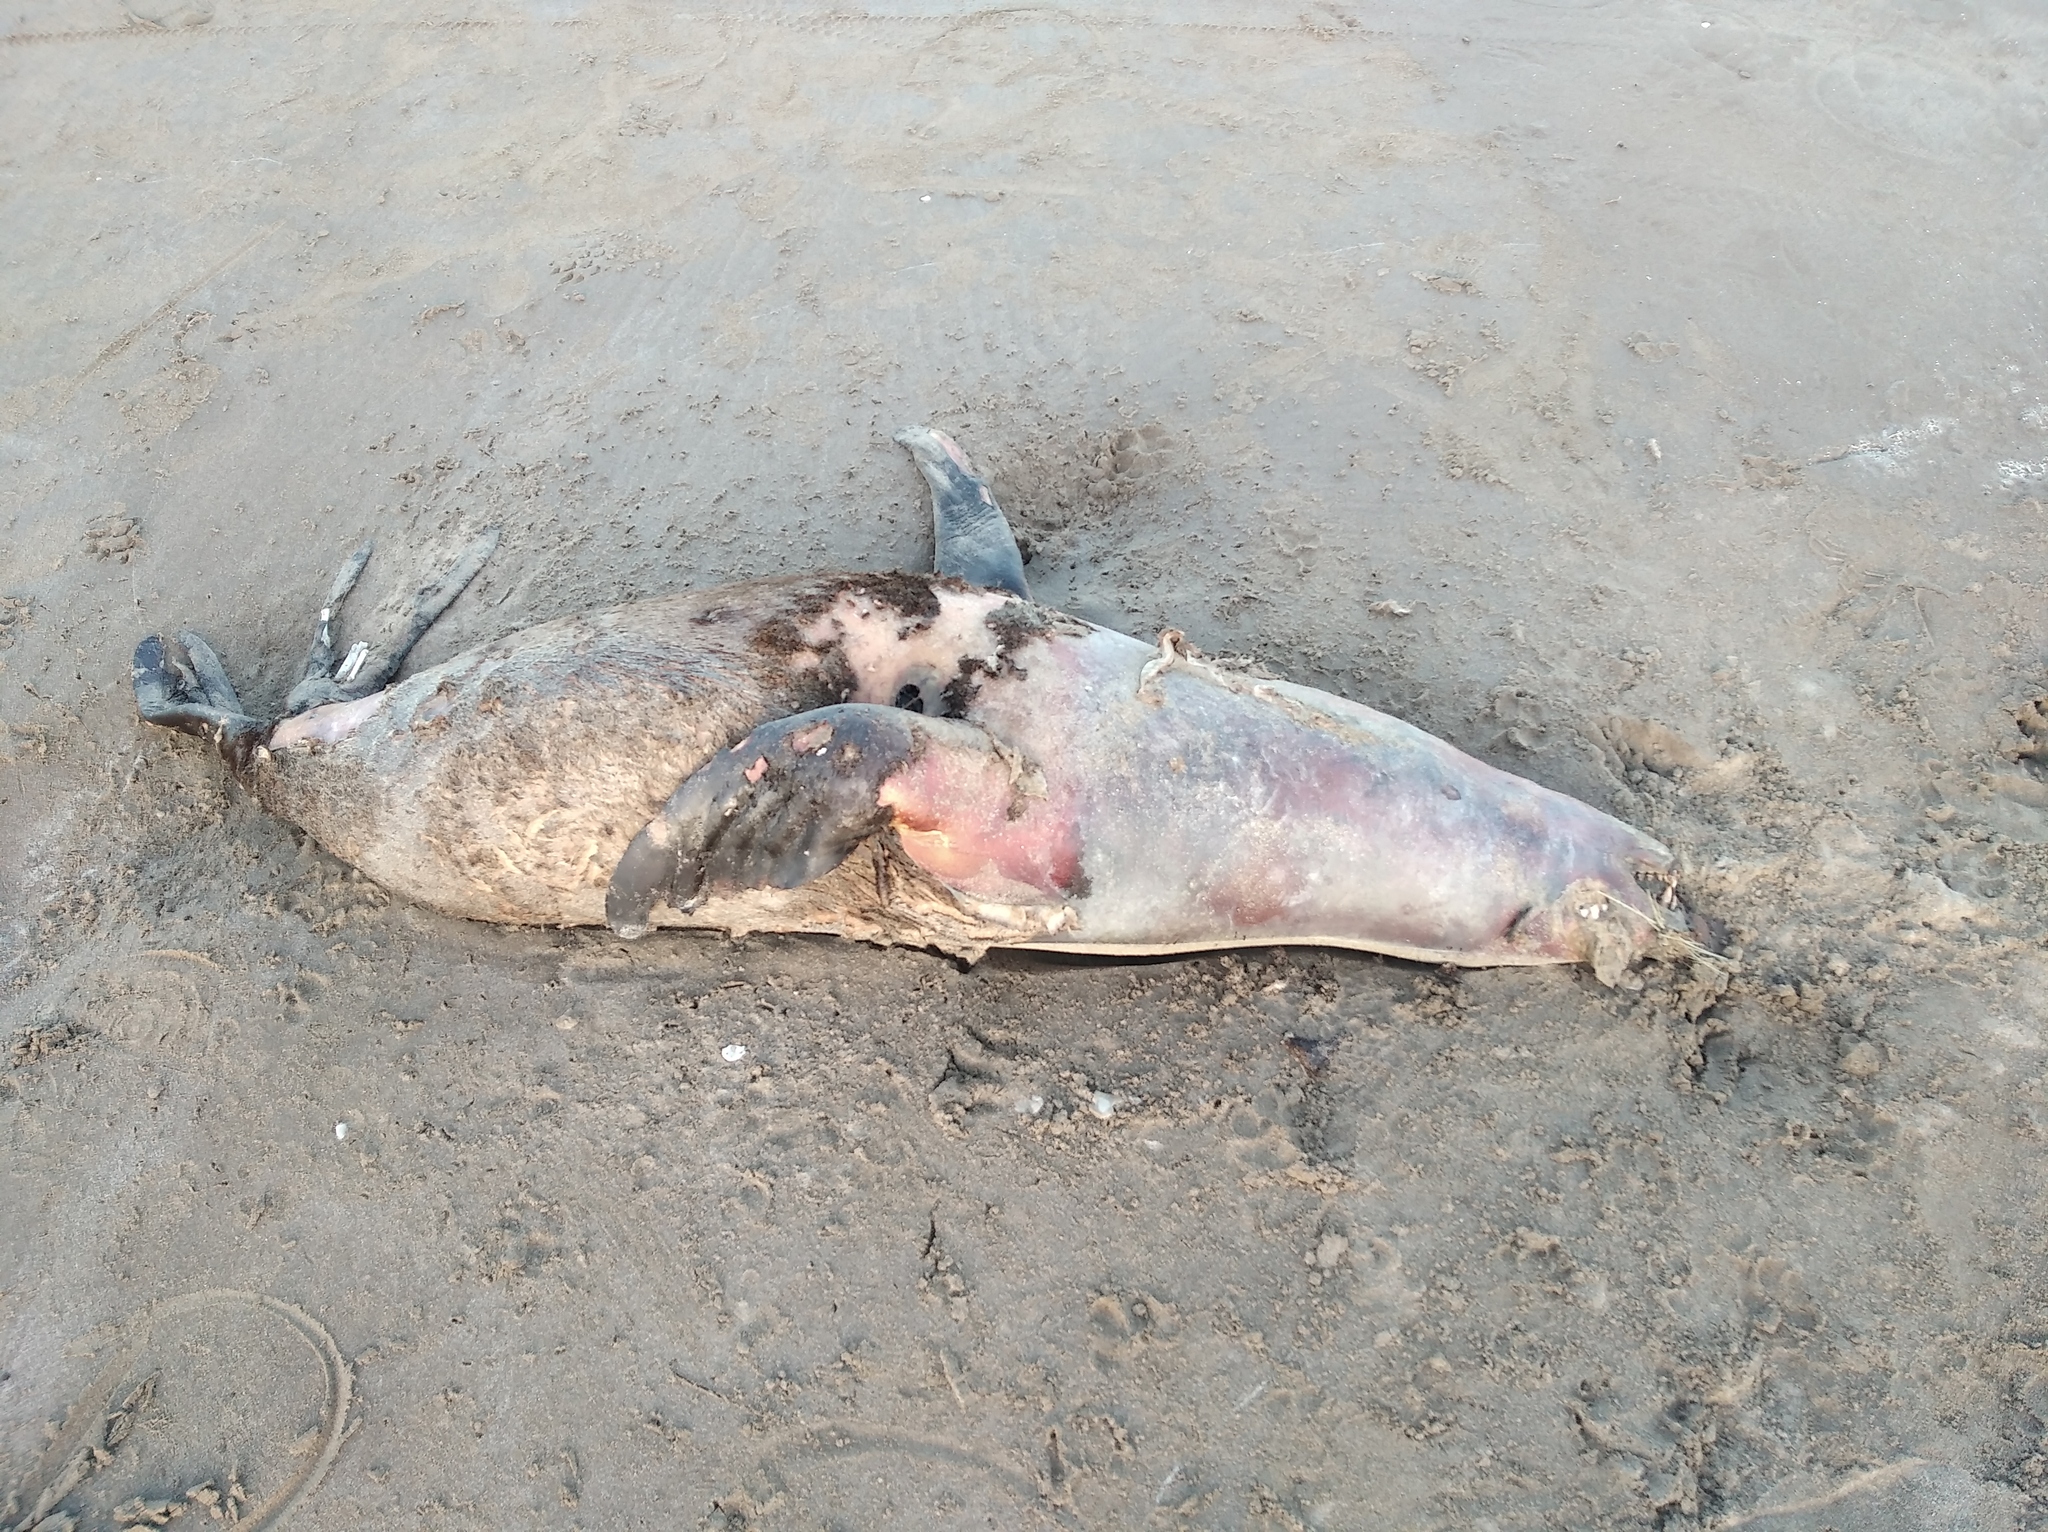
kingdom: Animalia
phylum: Chordata
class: Mammalia
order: Carnivora
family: Otariidae
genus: Arctocephalus
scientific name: Arctocephalus australis
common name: South american fur seal
